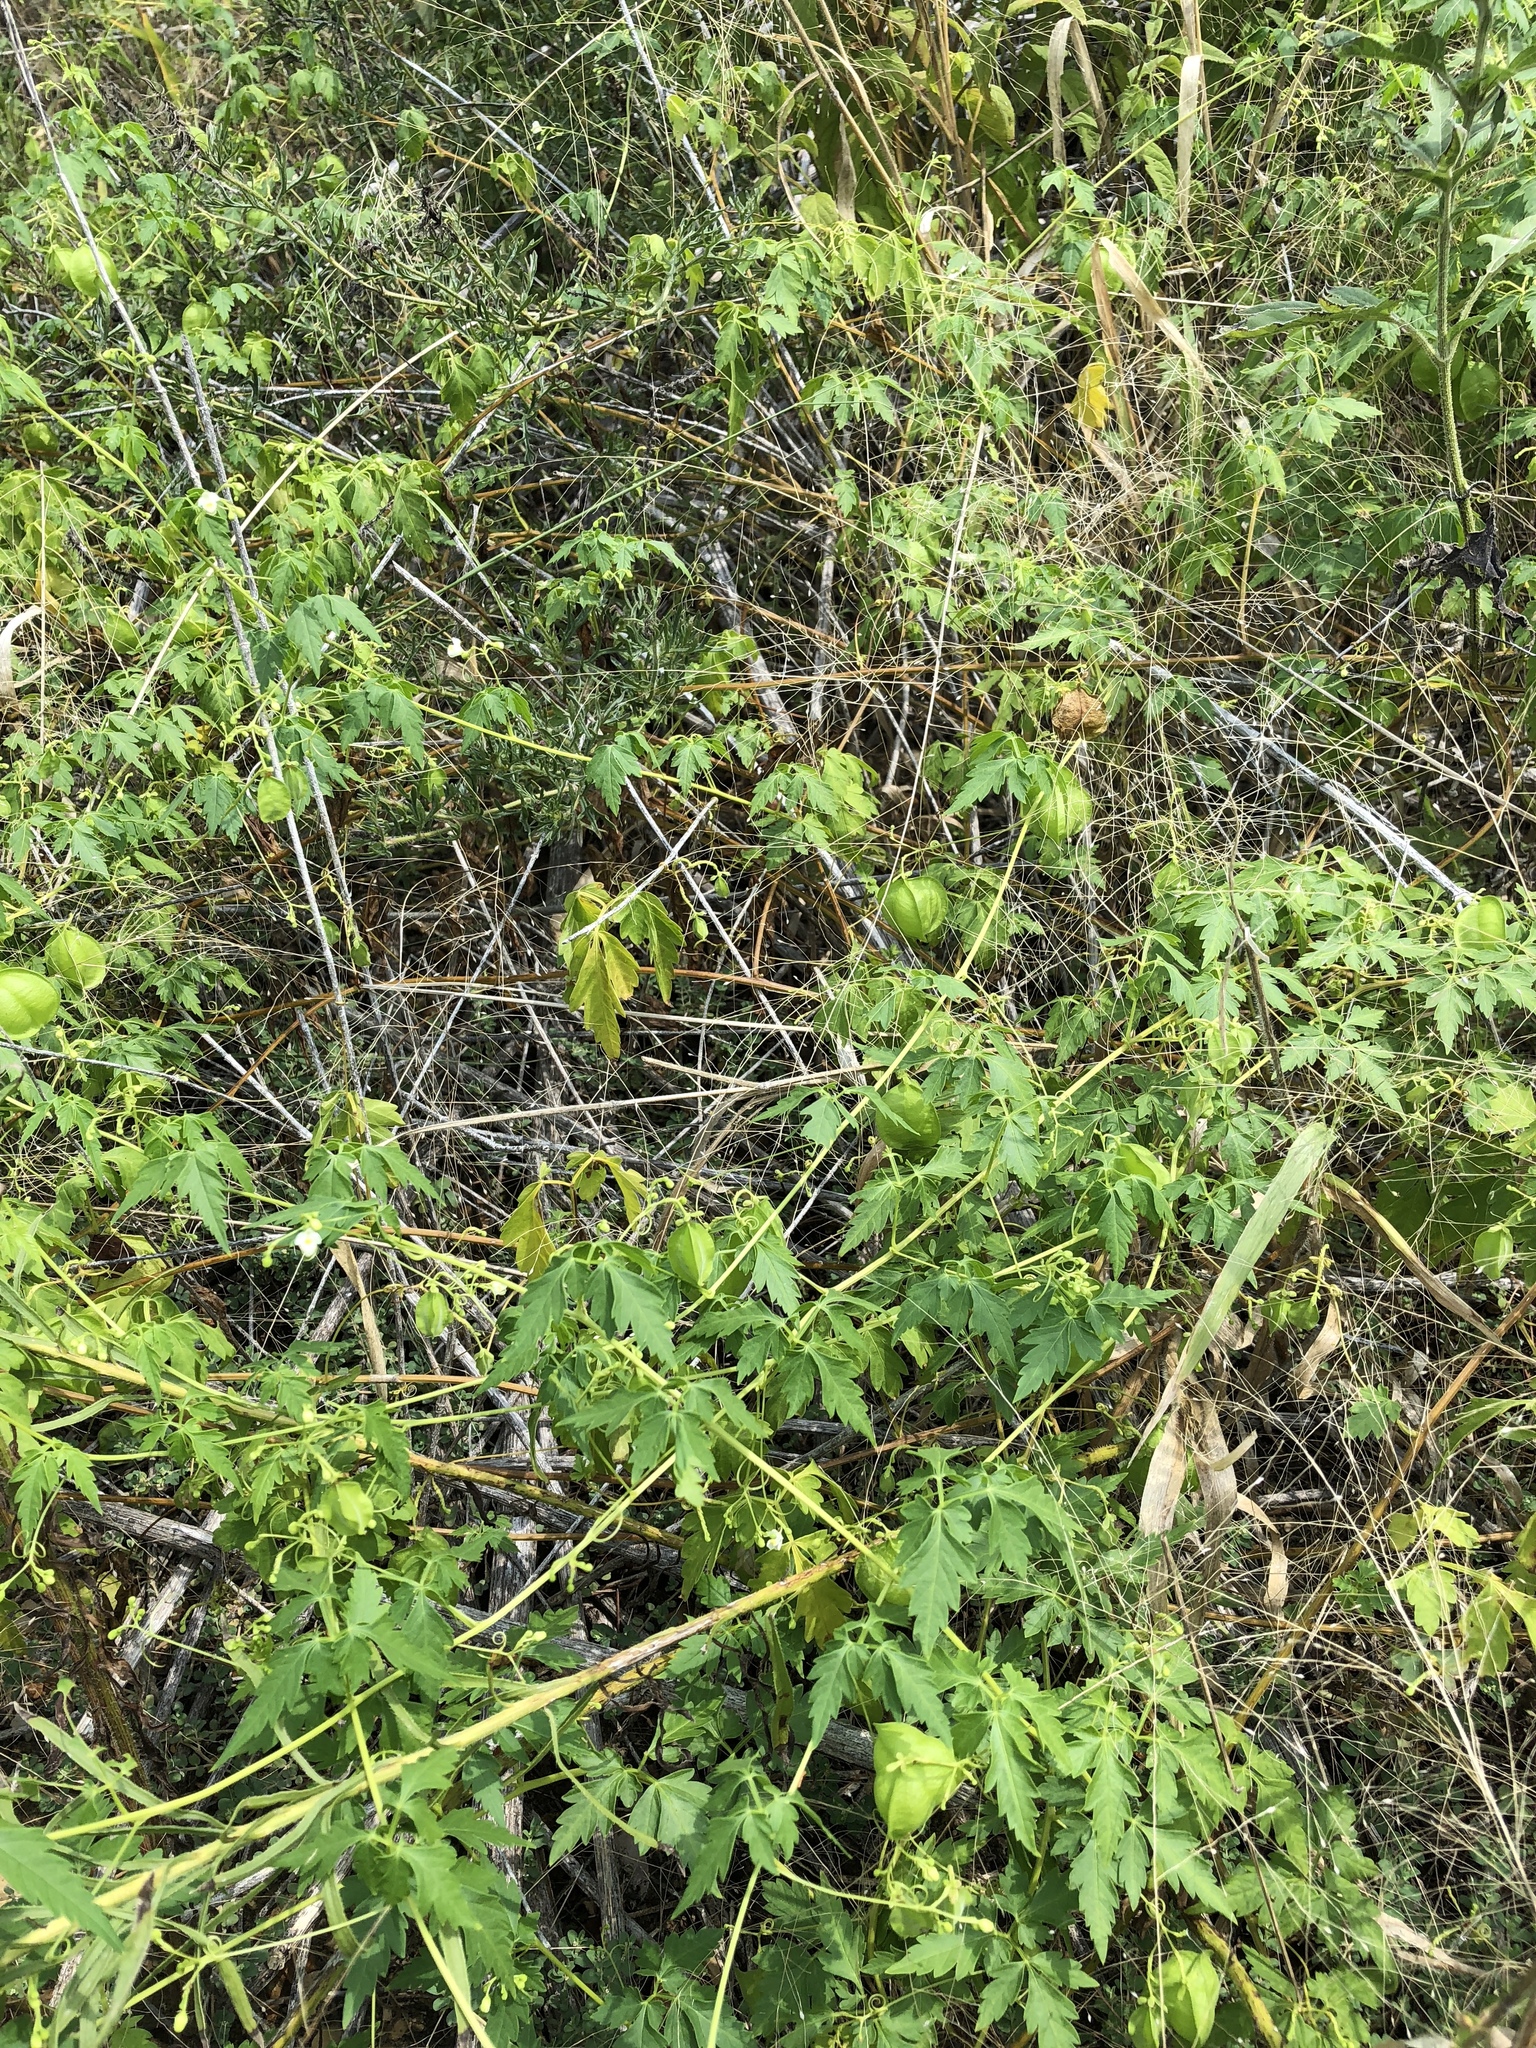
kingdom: Plantae
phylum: Tracheophyta
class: Magnoliopsida
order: Sapindales
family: Sapindaceae
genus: Cardiospermum
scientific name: Cardiospermum halicacabum
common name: Balloon vine
